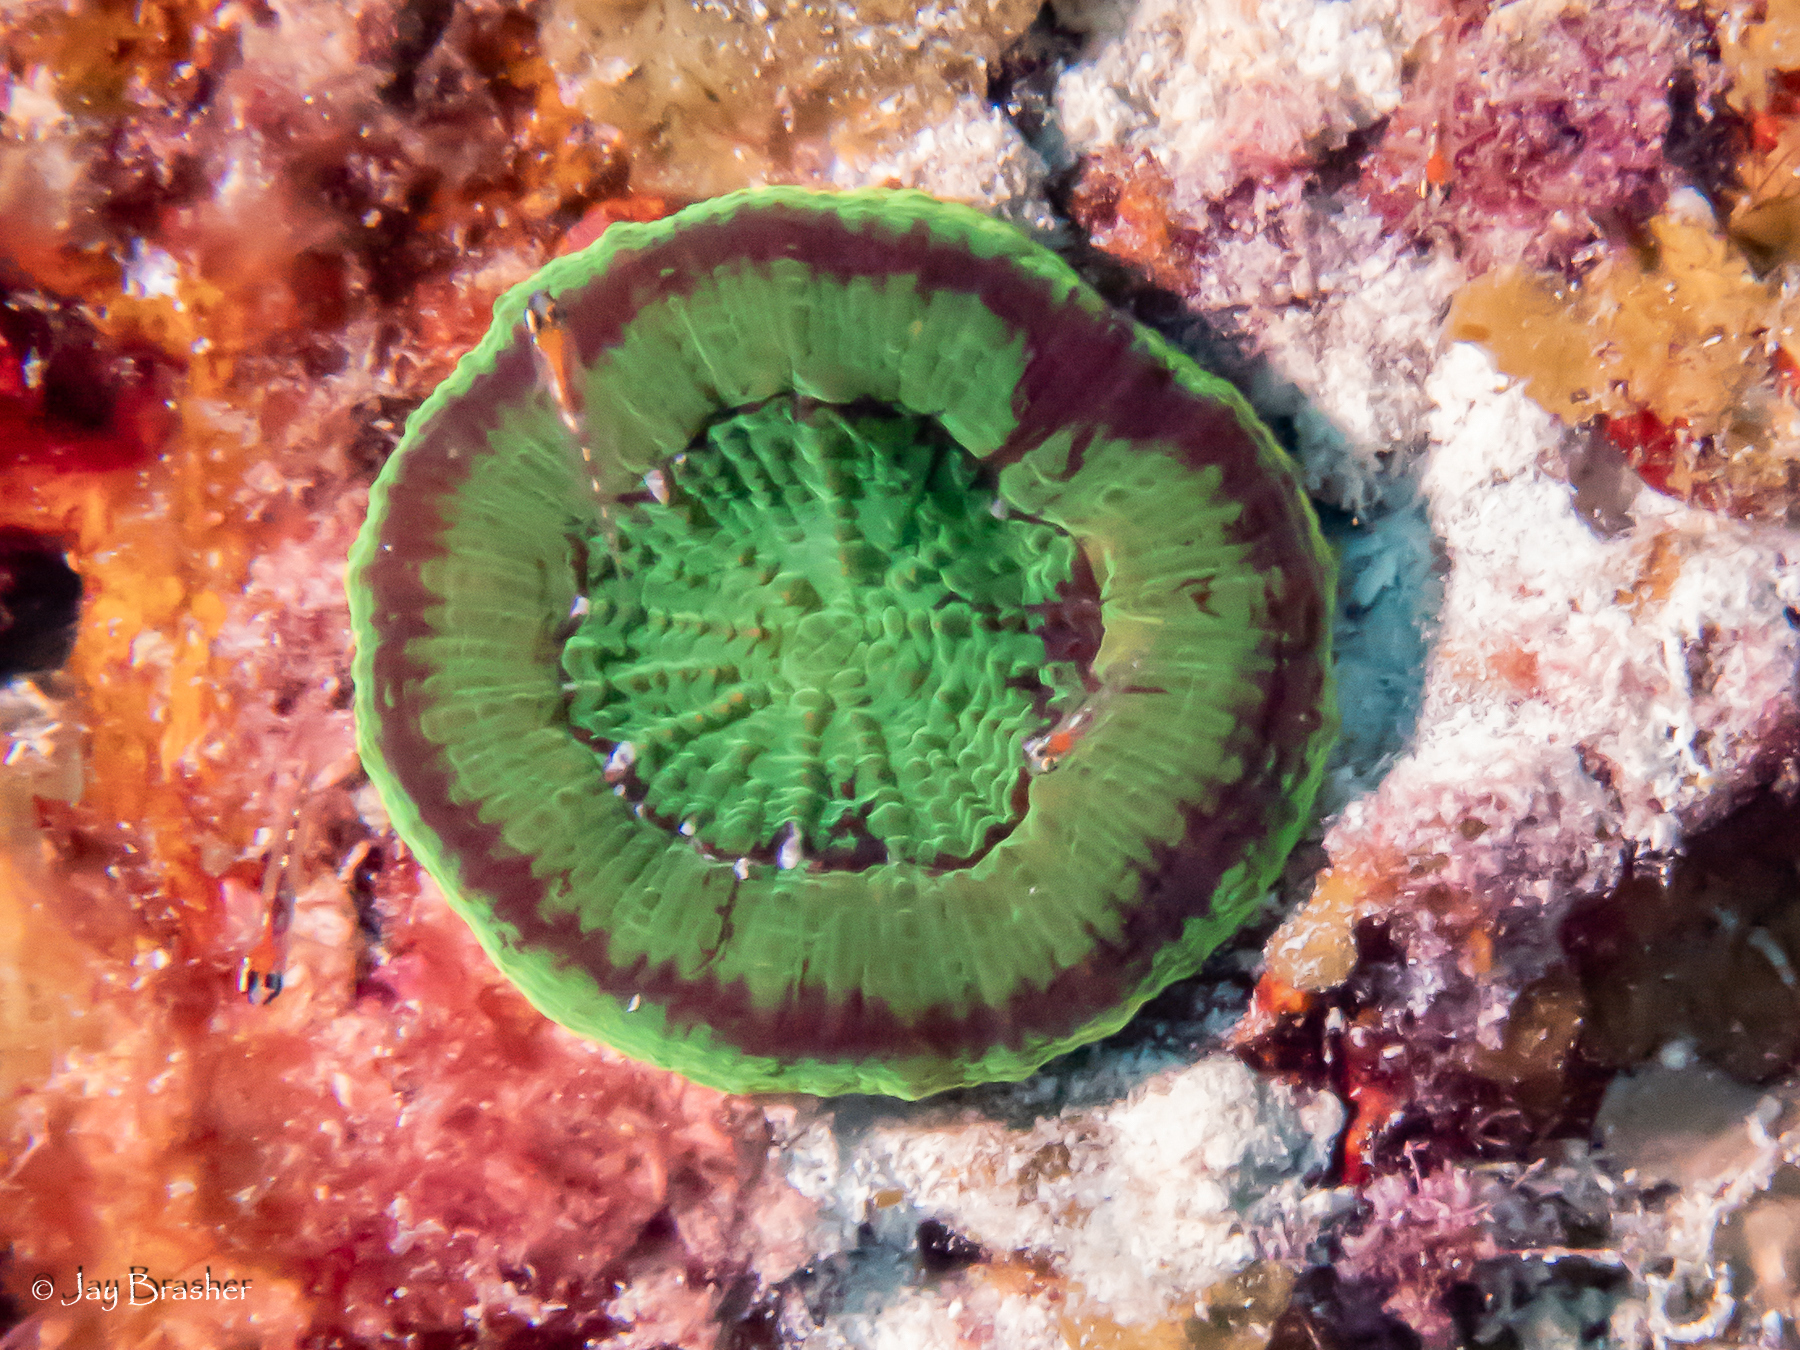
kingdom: Animalia
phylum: Cnidaria
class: Anthozoa
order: Scleractinia
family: Faviidae
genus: Scolymia
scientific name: Scolymia cubensis
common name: Artichoke coral
